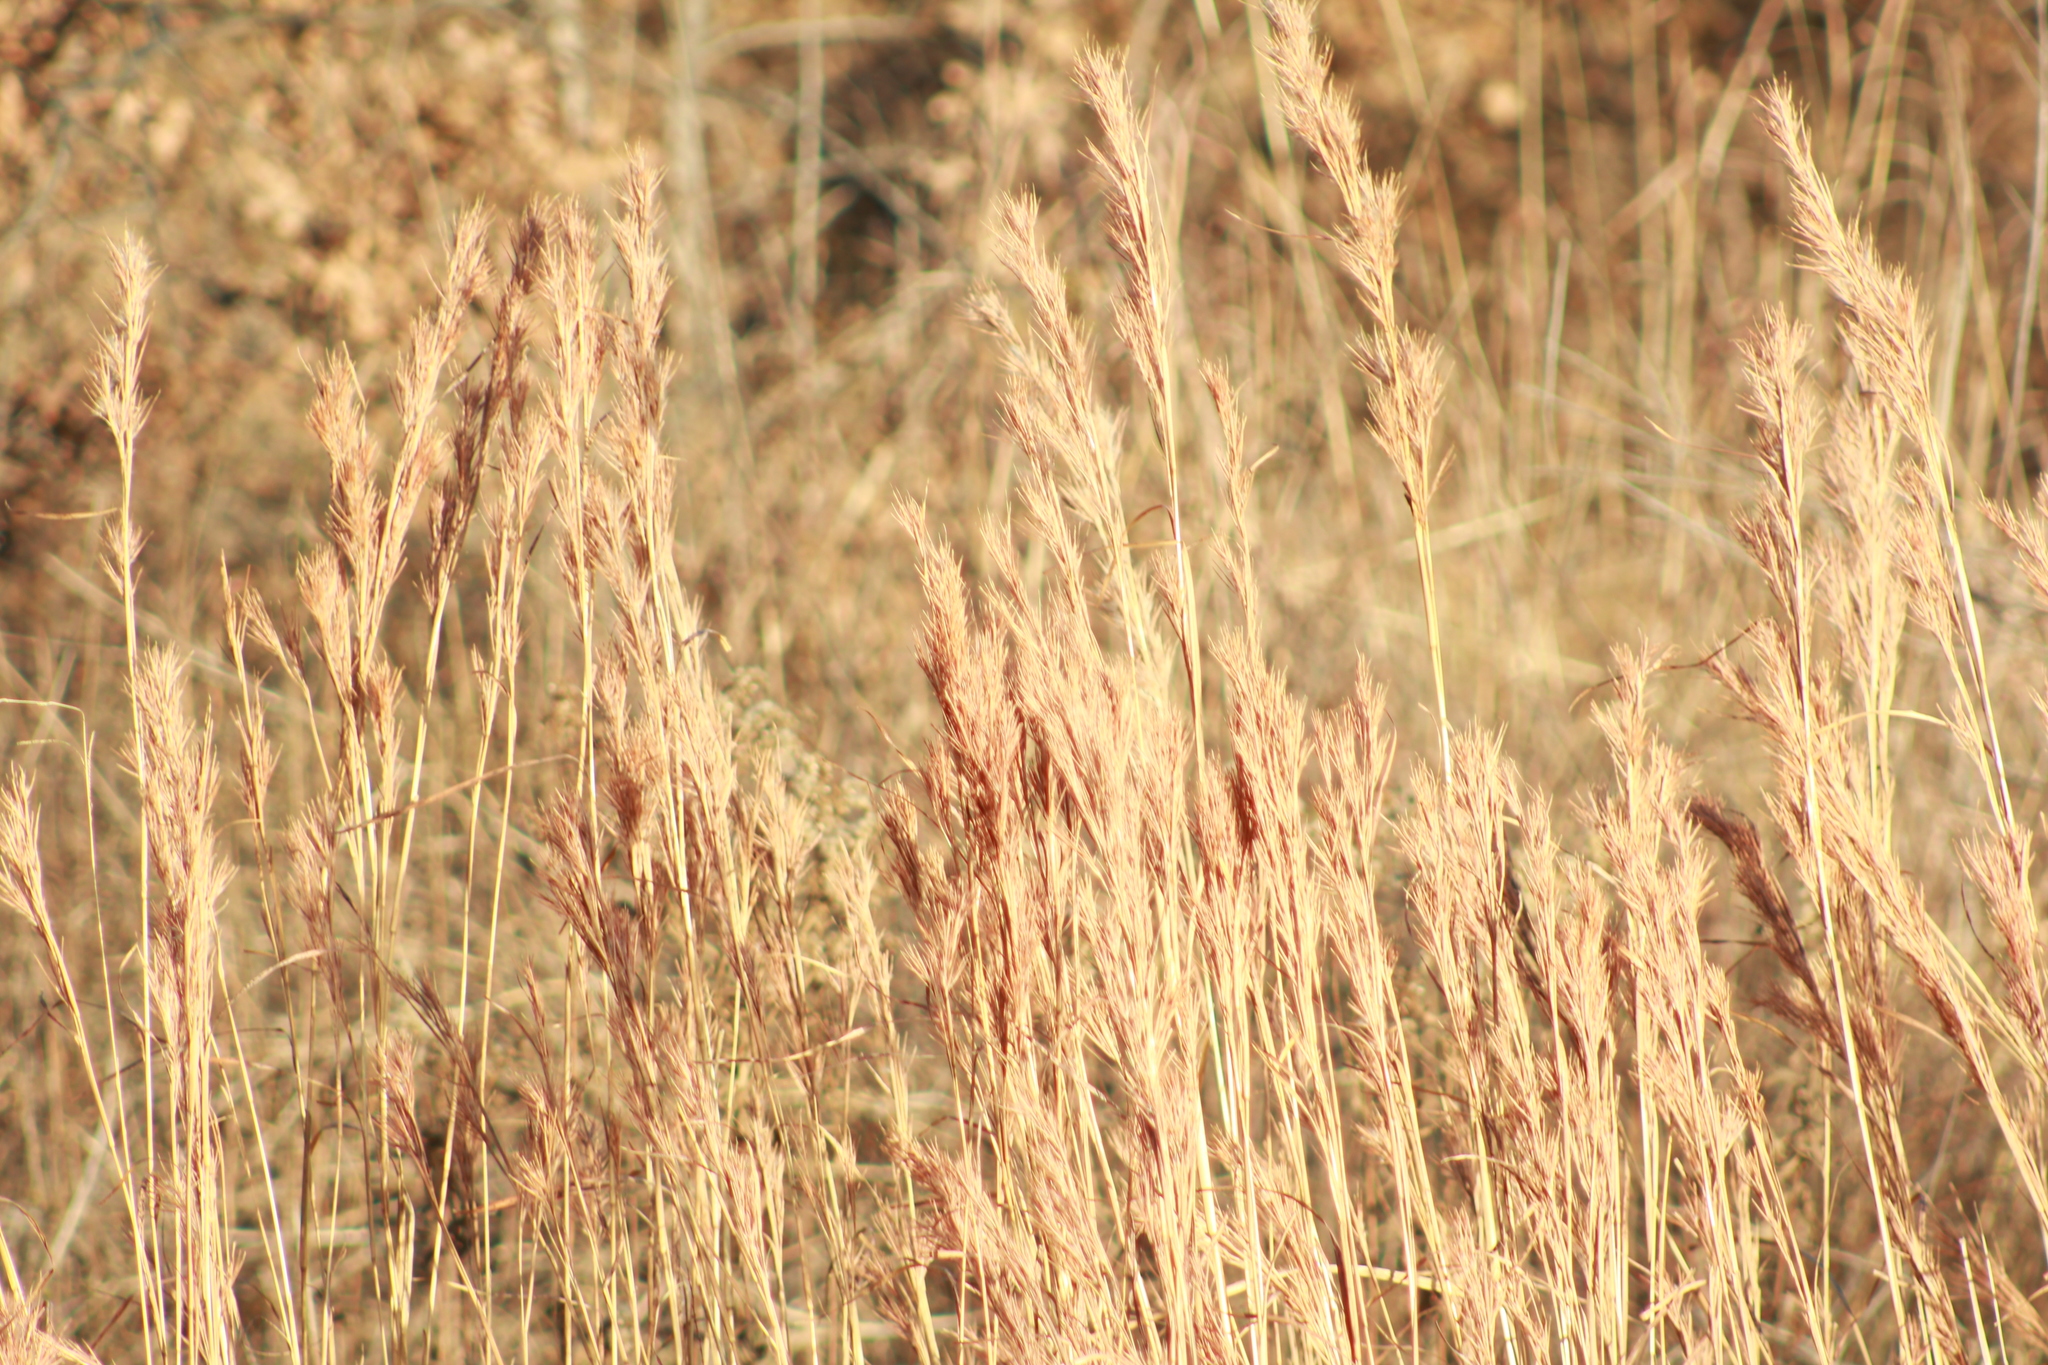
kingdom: Plantae
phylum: Tracheophyta
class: Liliopsida
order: Poales
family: Poaceae
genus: Andropogon
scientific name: Andropogon tenuispatheus
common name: Bushy bluestem
